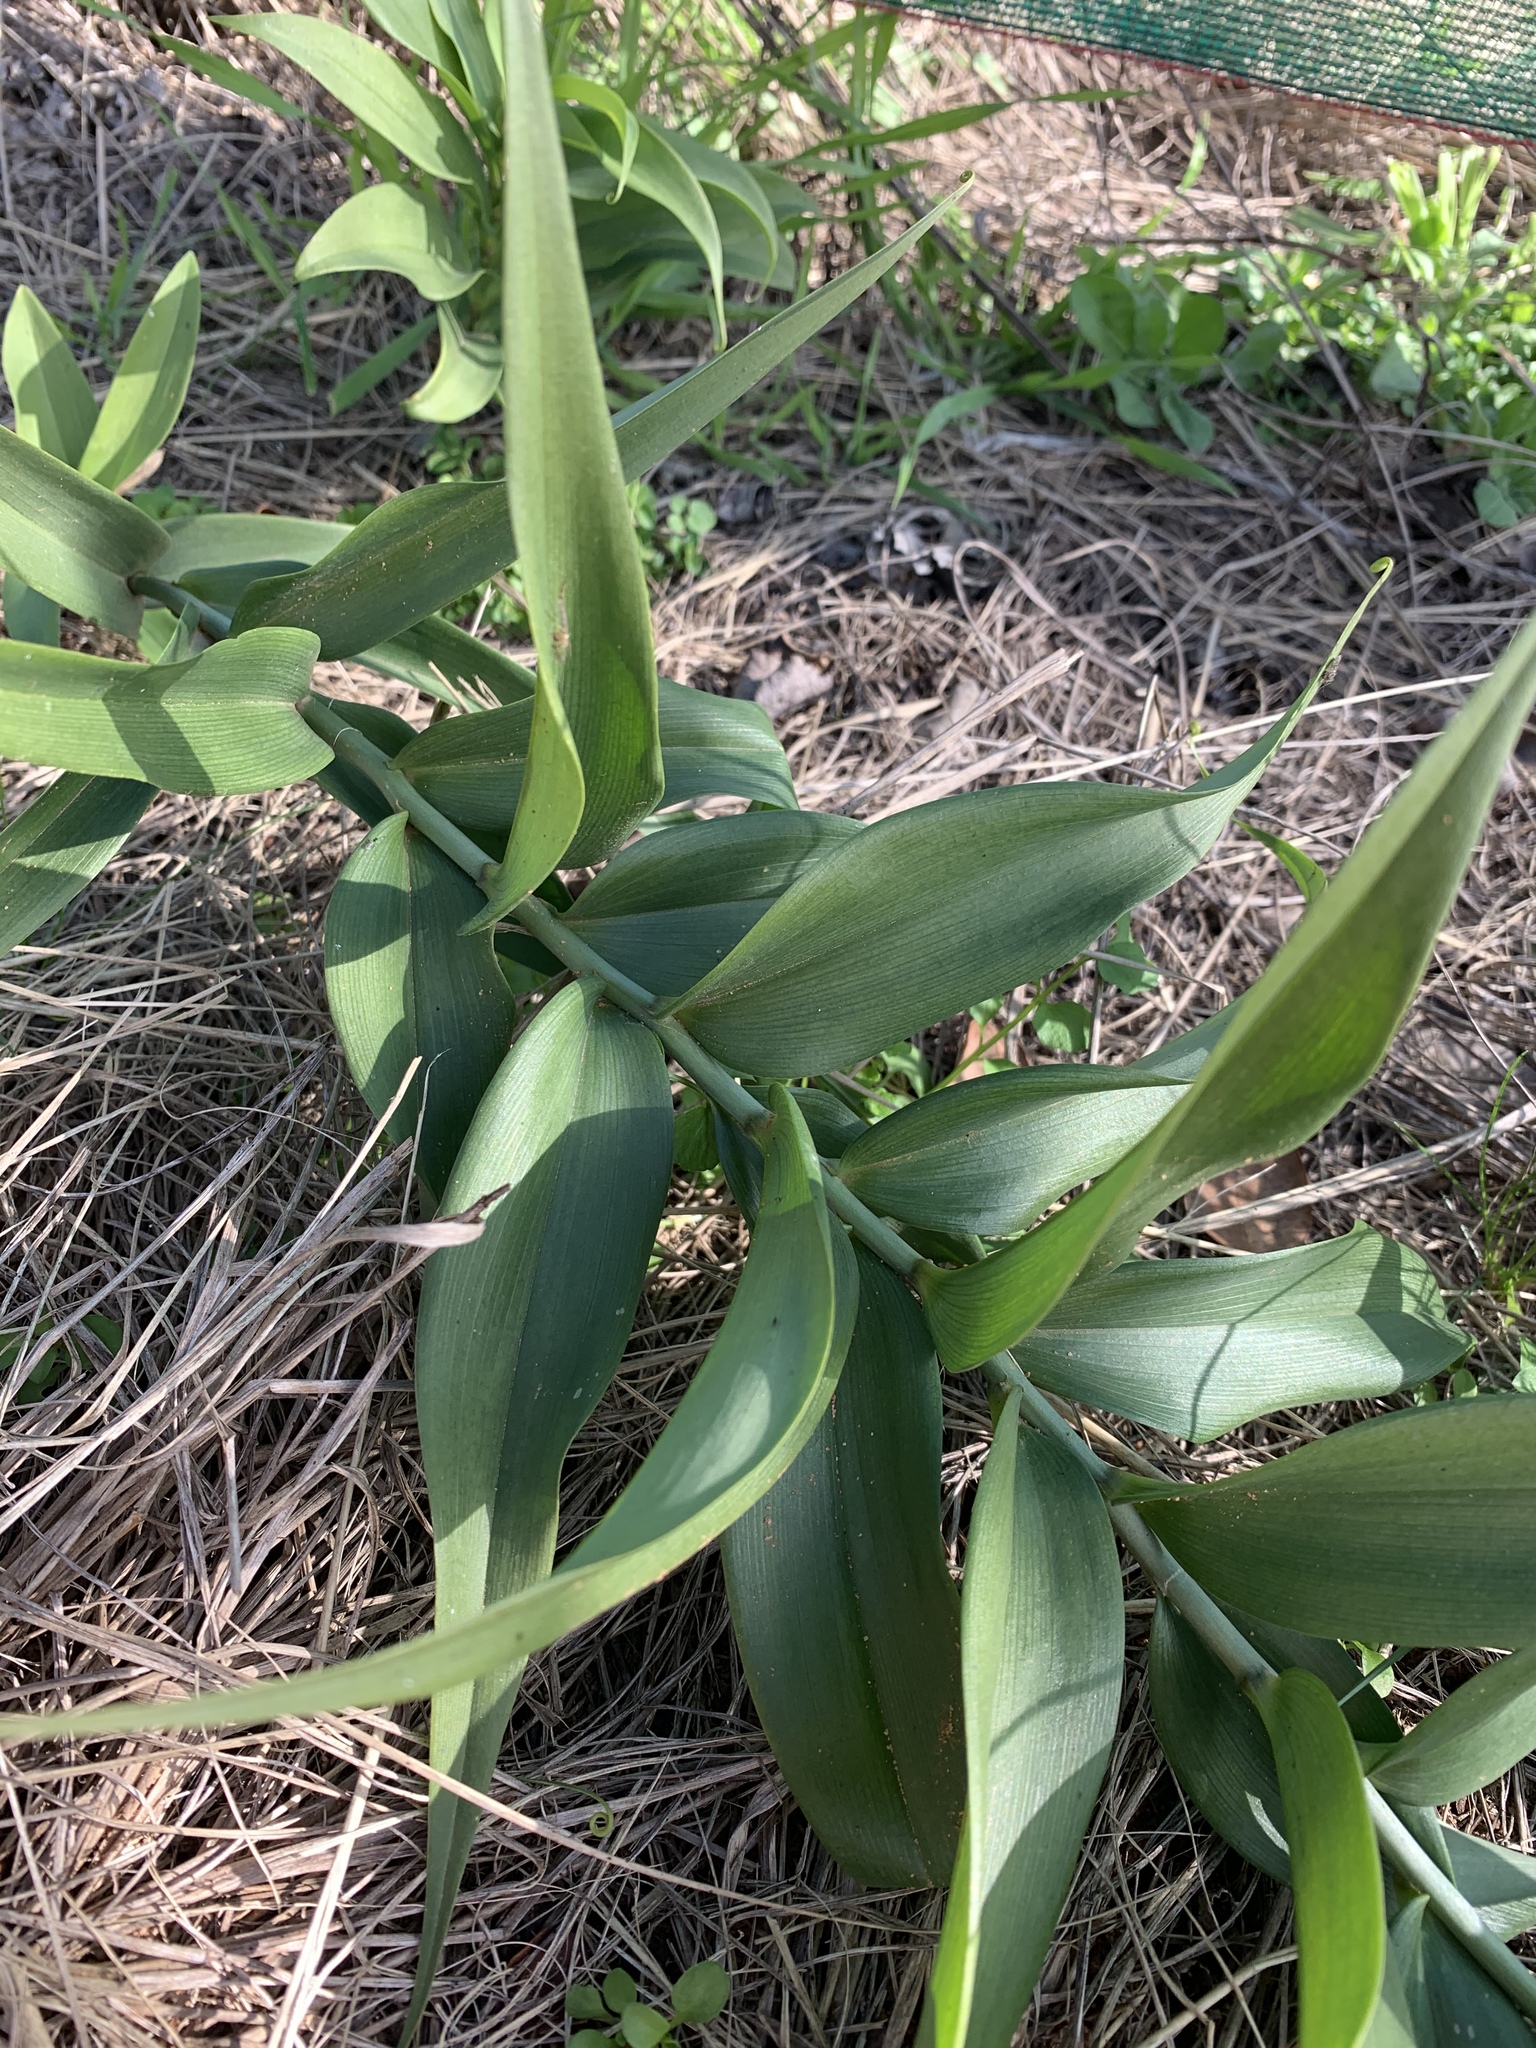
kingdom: Plantae
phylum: Tracheophyta
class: Liliopsida
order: Liliales
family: Colchicaceae
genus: Gloriosa
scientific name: Gloriosa superba
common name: Flame lily
